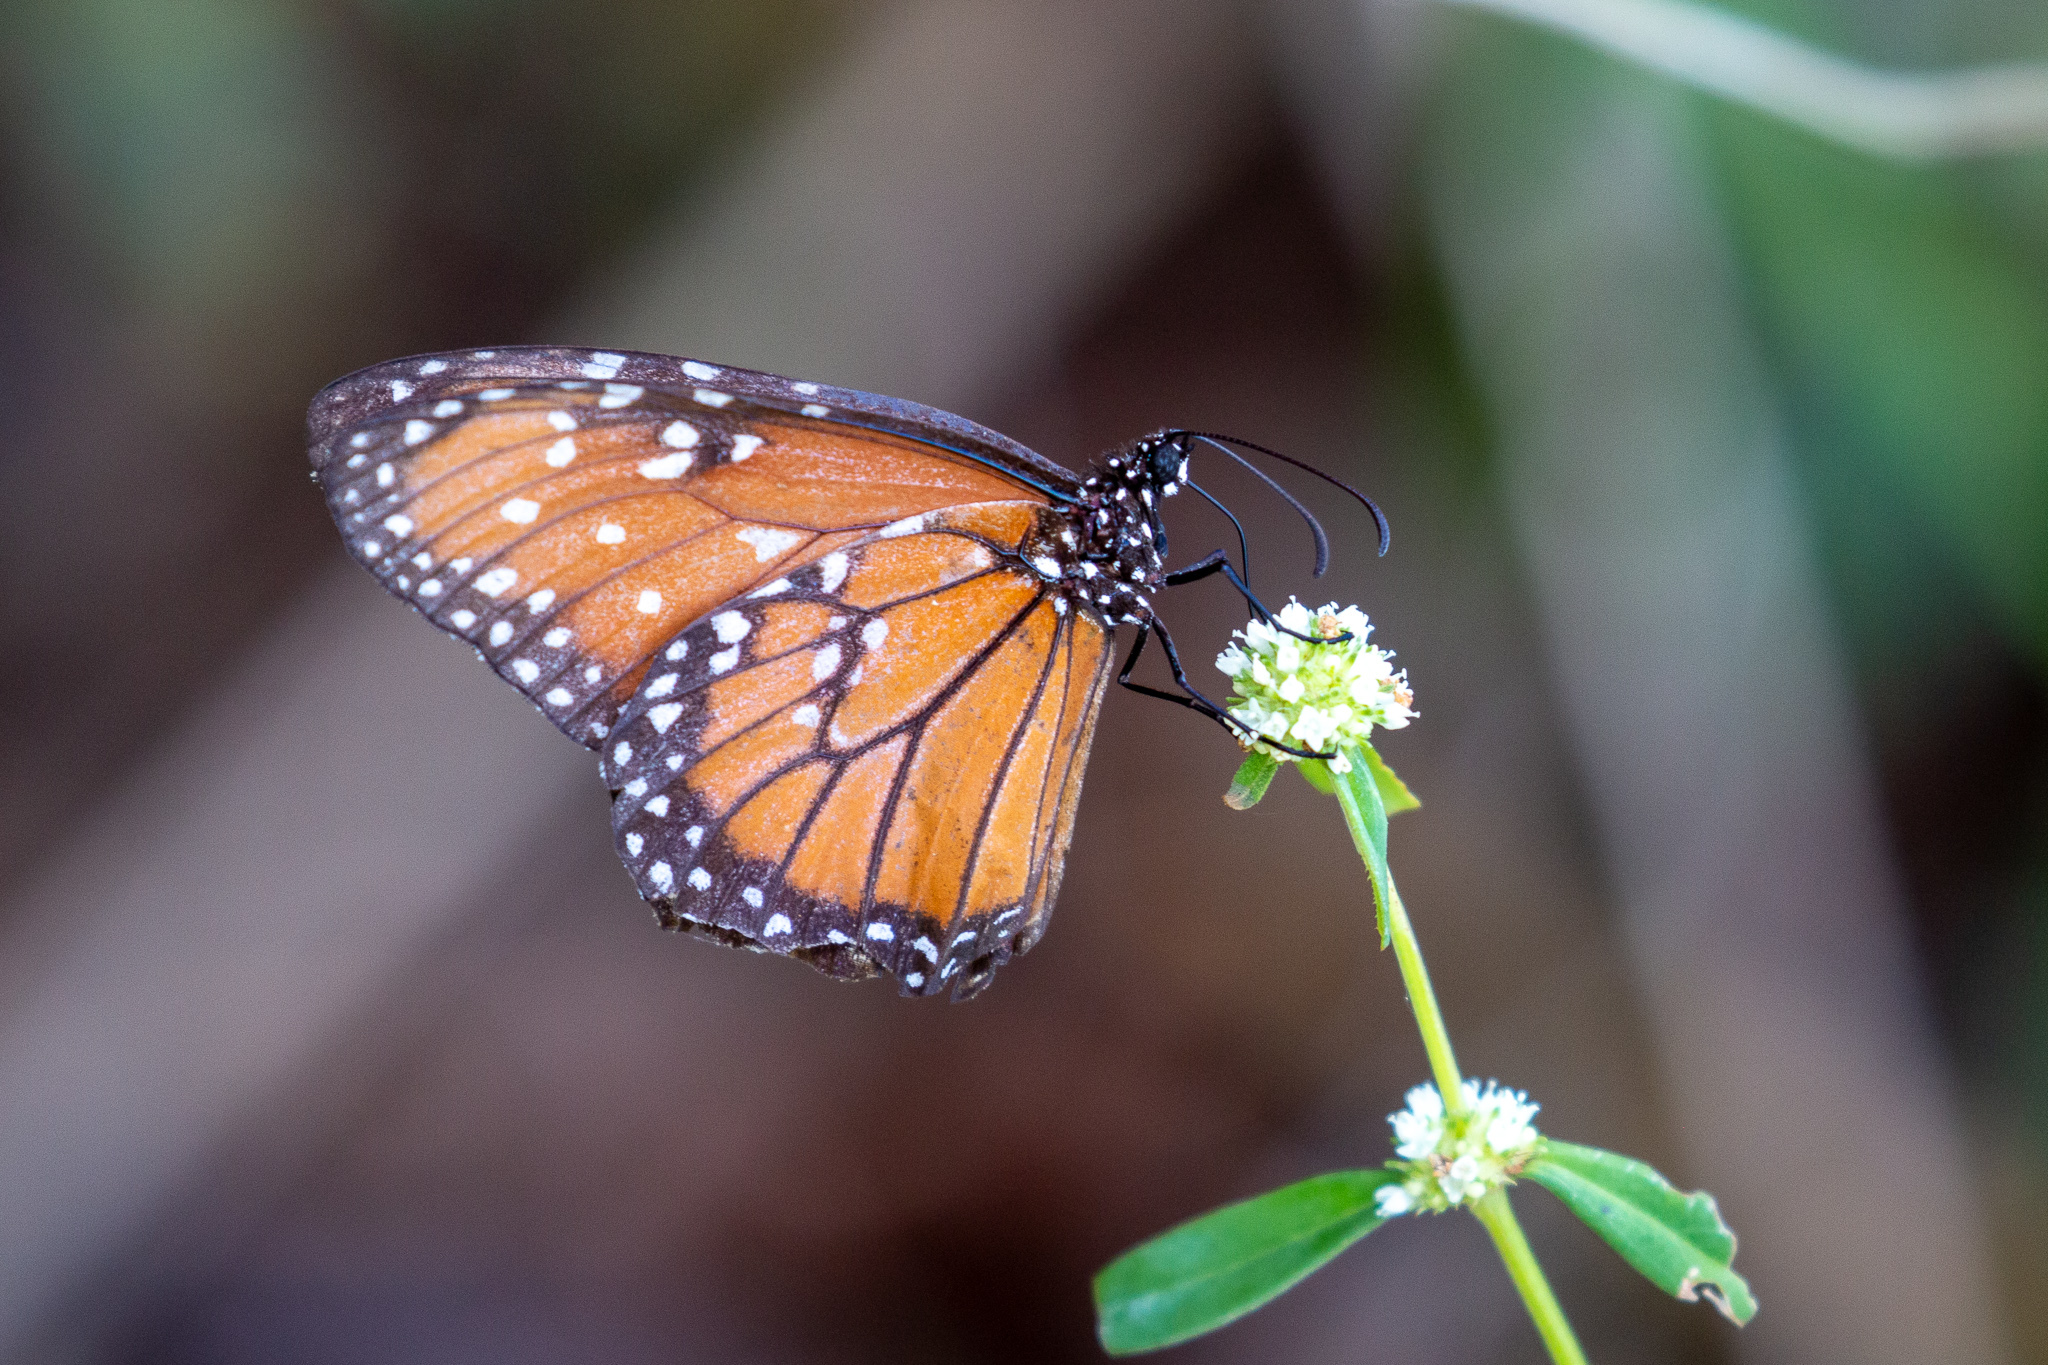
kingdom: Animalia
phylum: Arthropoda
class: Insecta
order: Lepidoptera
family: Nymphalidae
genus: Danaus
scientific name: Danaus gilippus
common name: Queen
